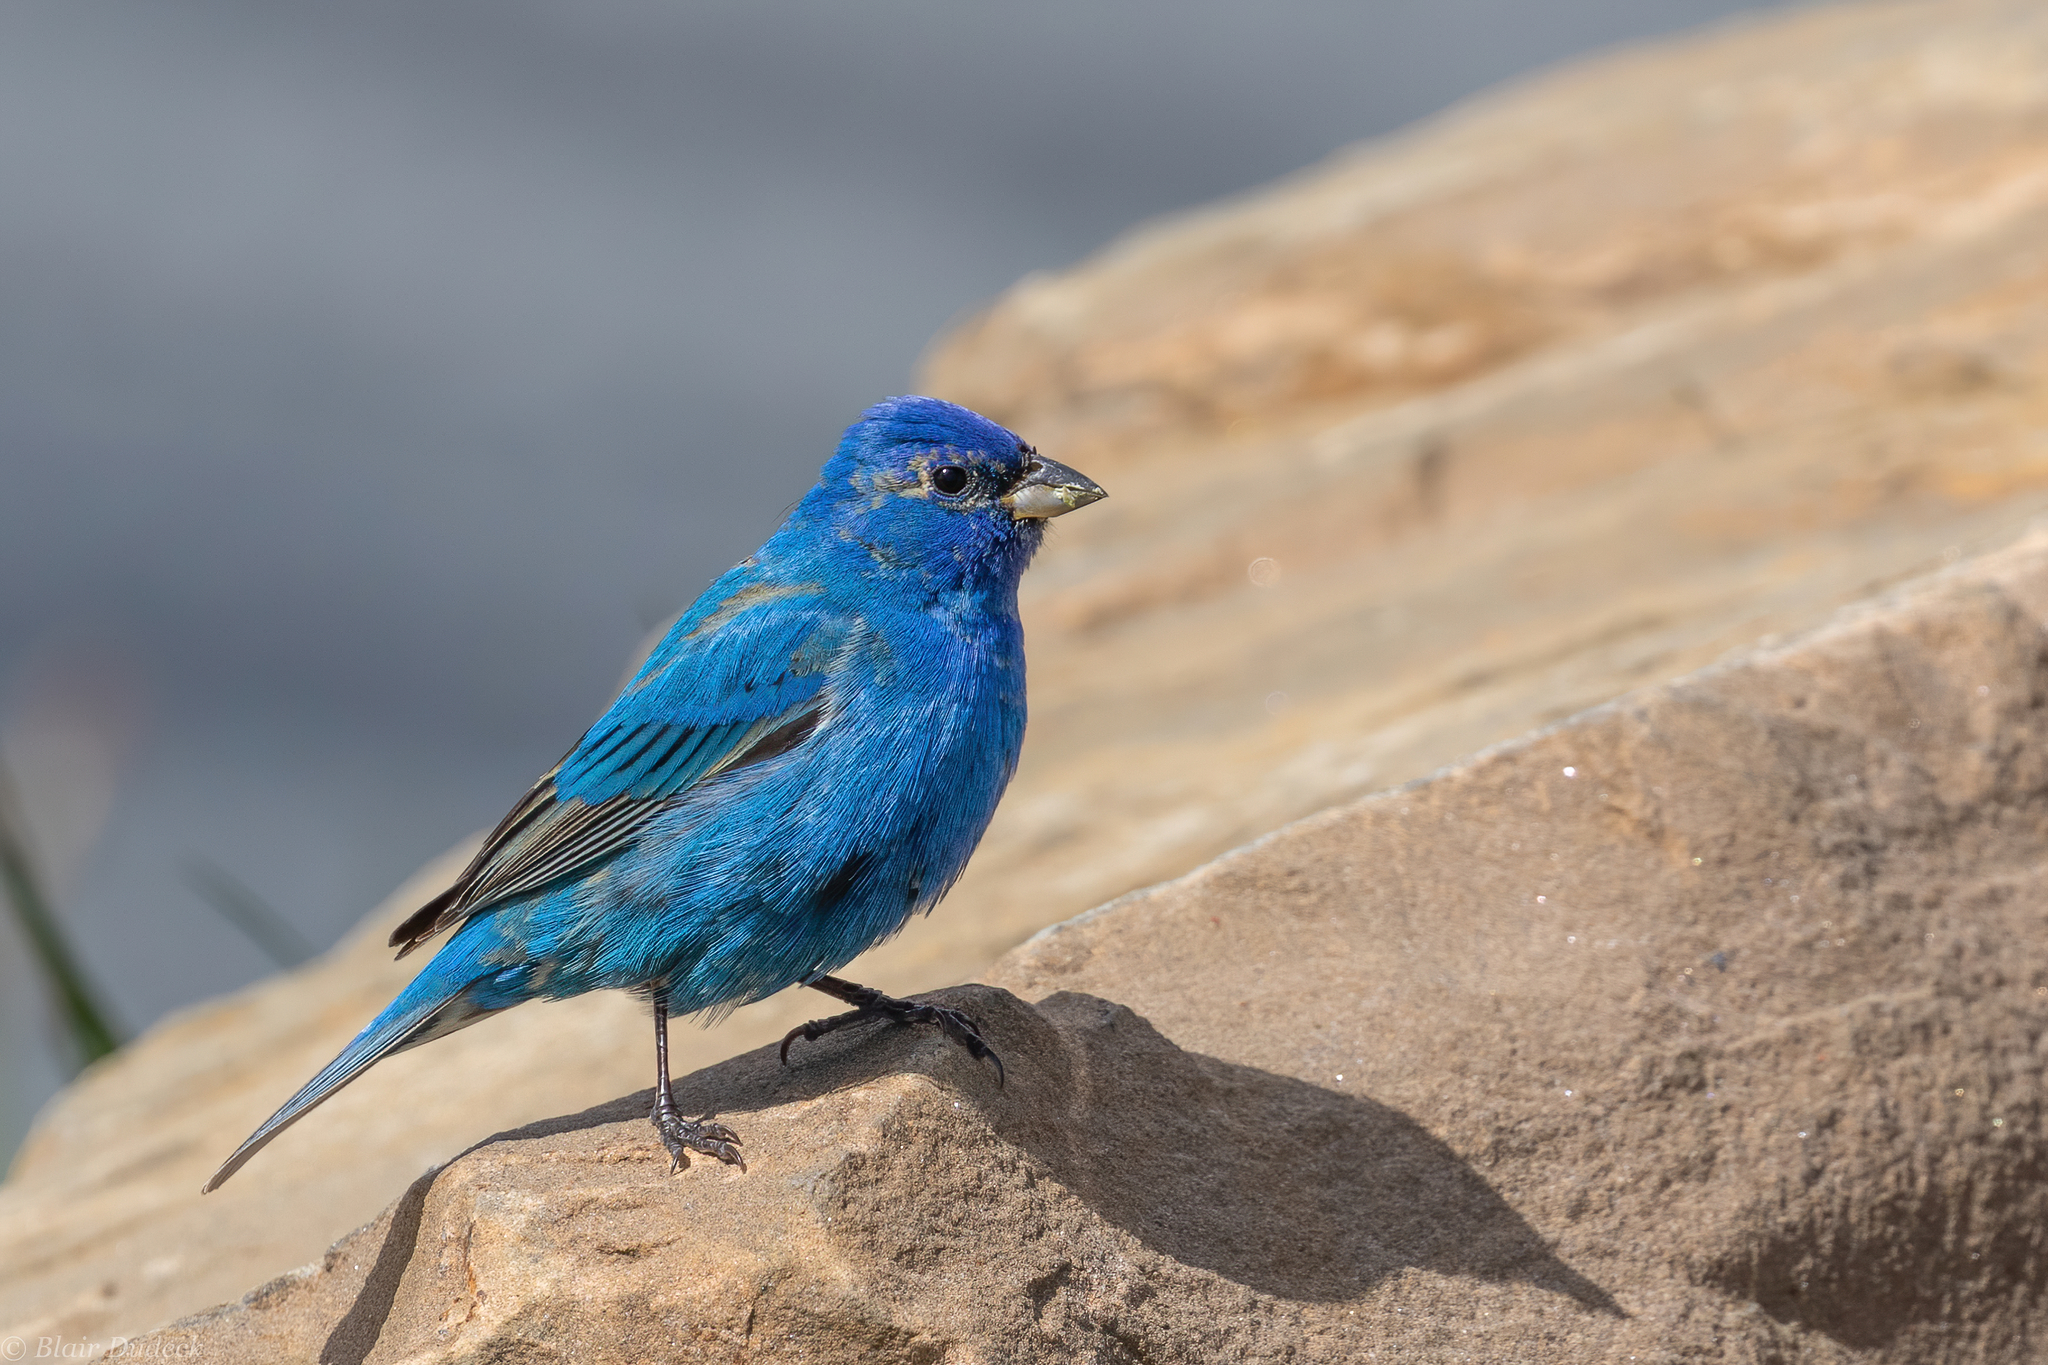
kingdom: Animalia
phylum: Chordata
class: Aves
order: Passeriformes
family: Cardinalidae
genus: Passerina
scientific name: Passerina cyanea
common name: Indigo bunting
